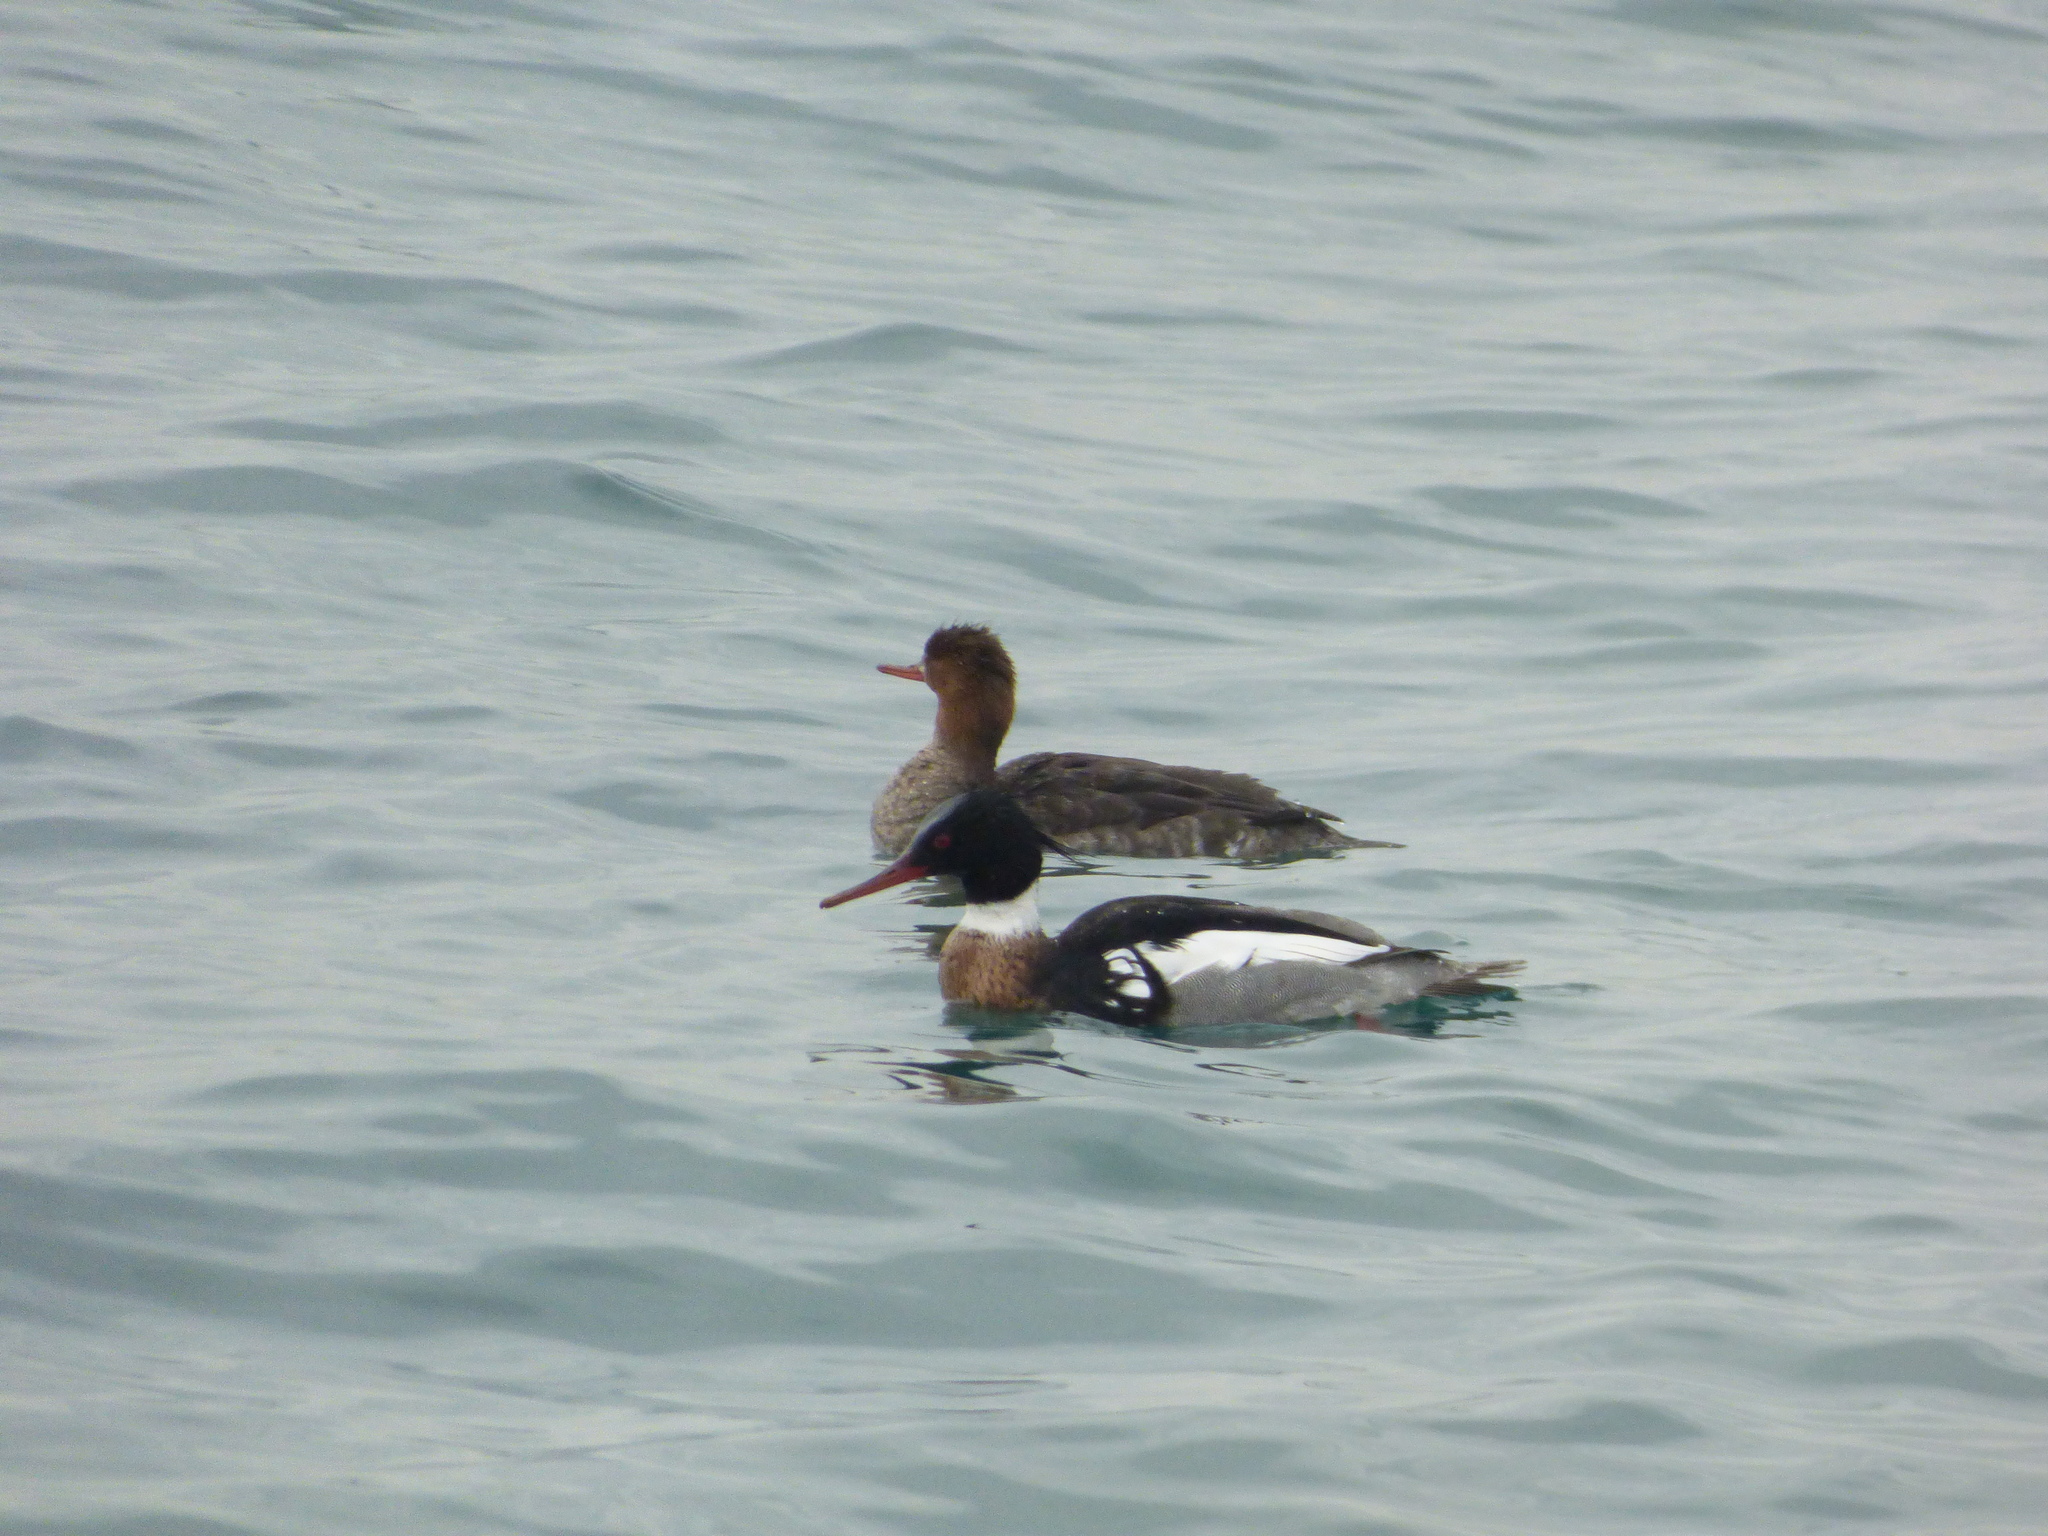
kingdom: Animalia
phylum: Chordata
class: Aves
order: Anseriformes
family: Anatidae
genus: Mergus
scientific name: Mergus serrator
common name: Red-breasted merganser
